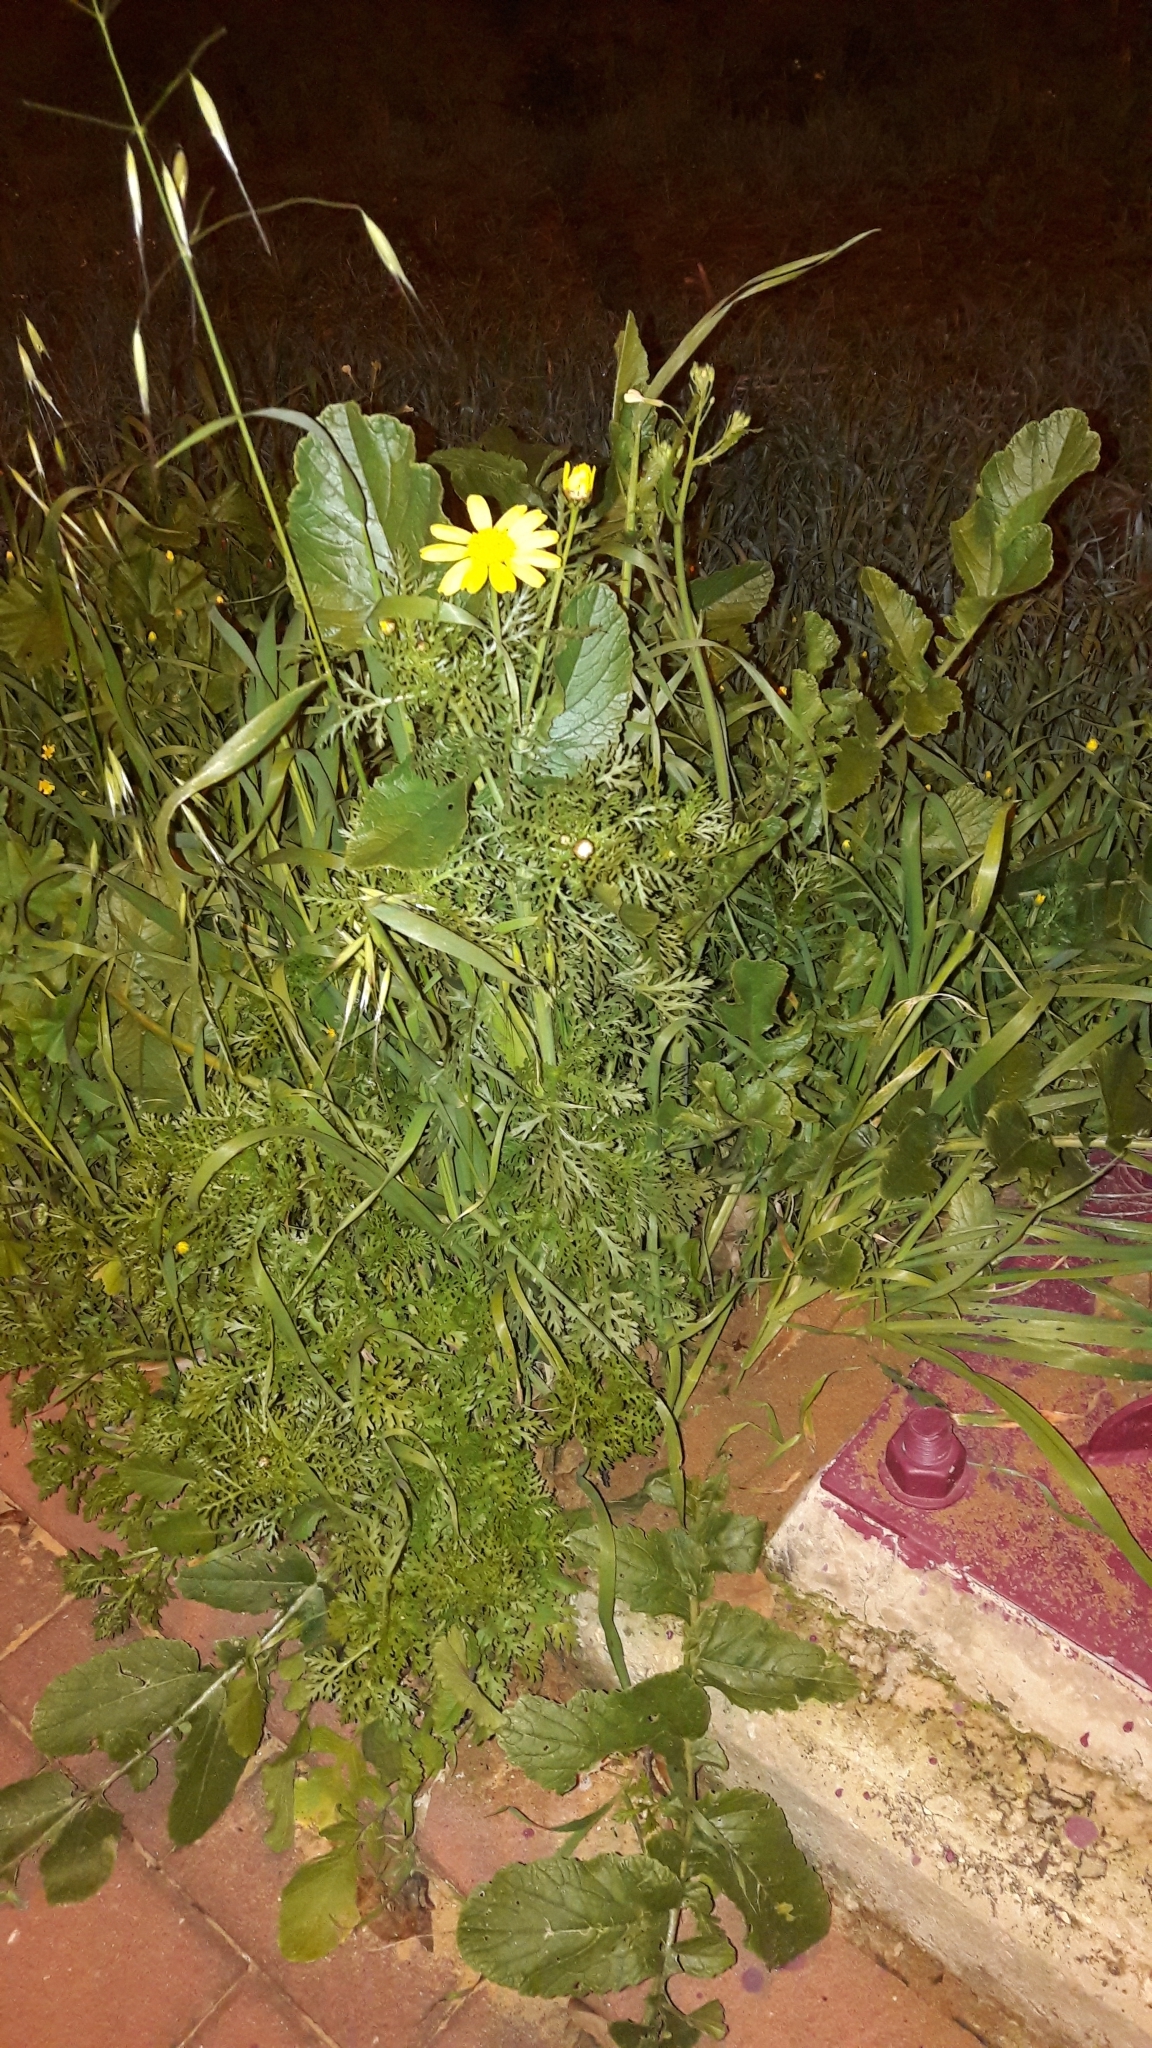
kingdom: Plantae
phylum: Tracheophyta
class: Magnoliopsida
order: Asterales
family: Asteraceae
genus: Glebionis
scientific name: Glebionis coronaria
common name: Crowndaisy
